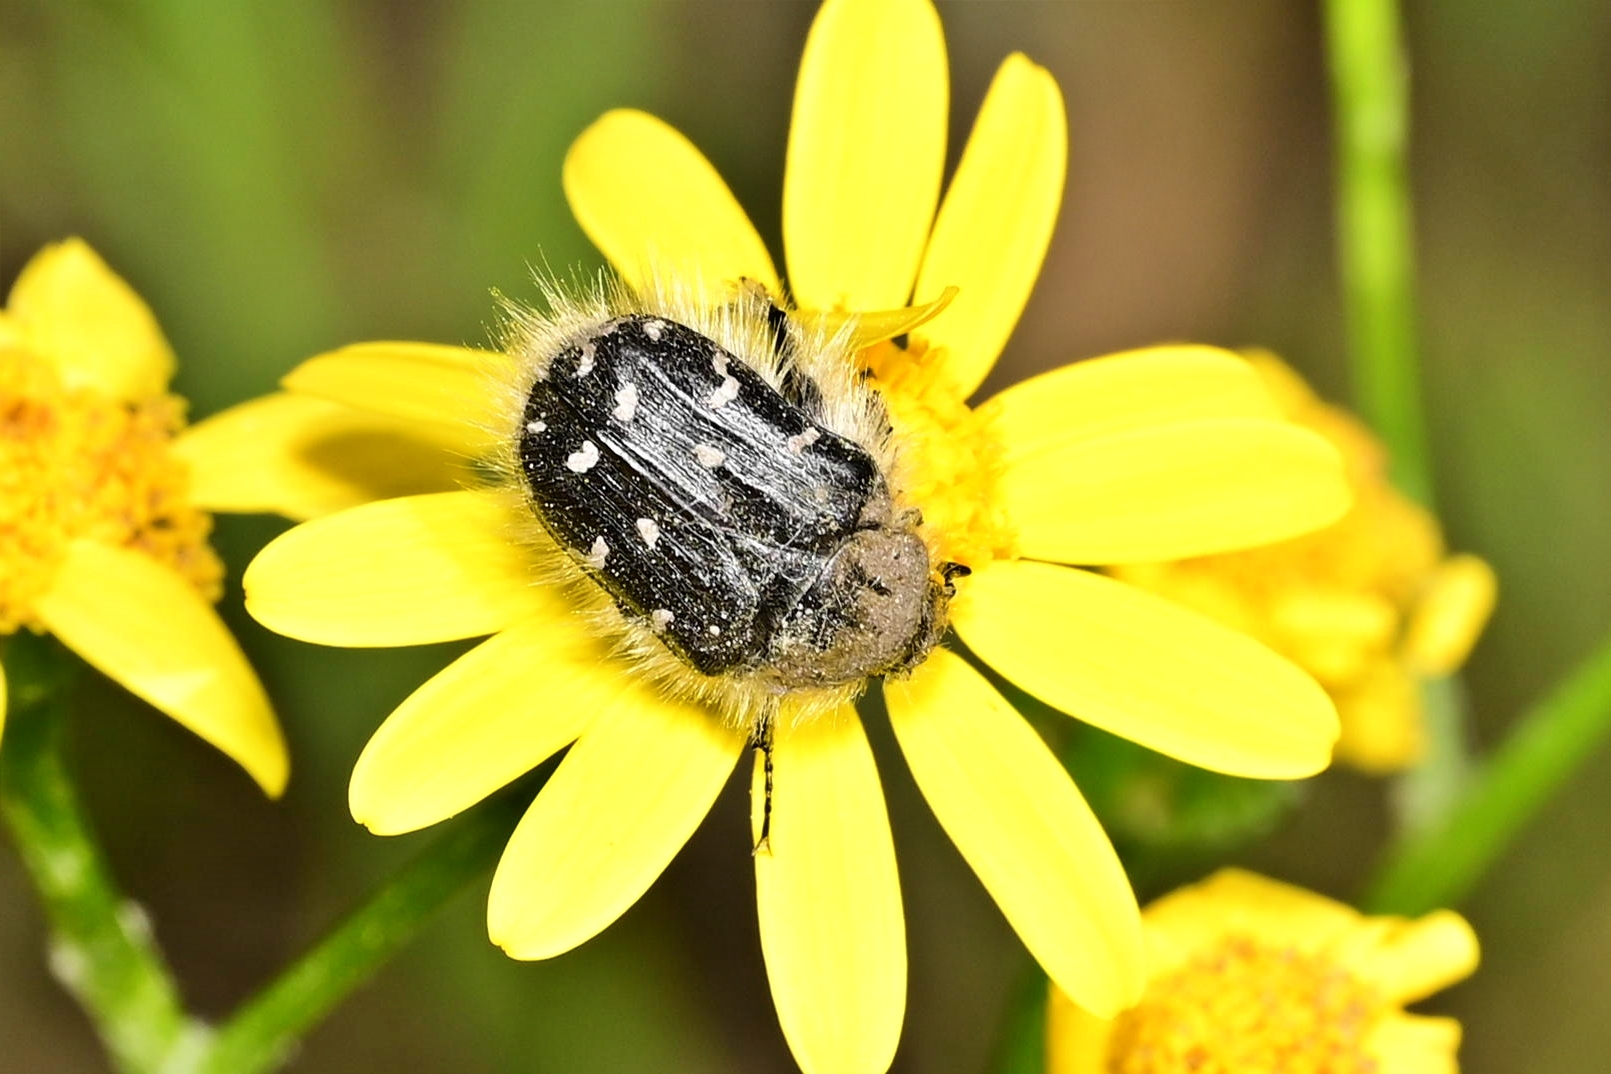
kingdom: Animalia
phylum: Arthropoda
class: Insecta
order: Coleoptera
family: Scarabaeidae
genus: Tropinota
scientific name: Tropinota hirta
